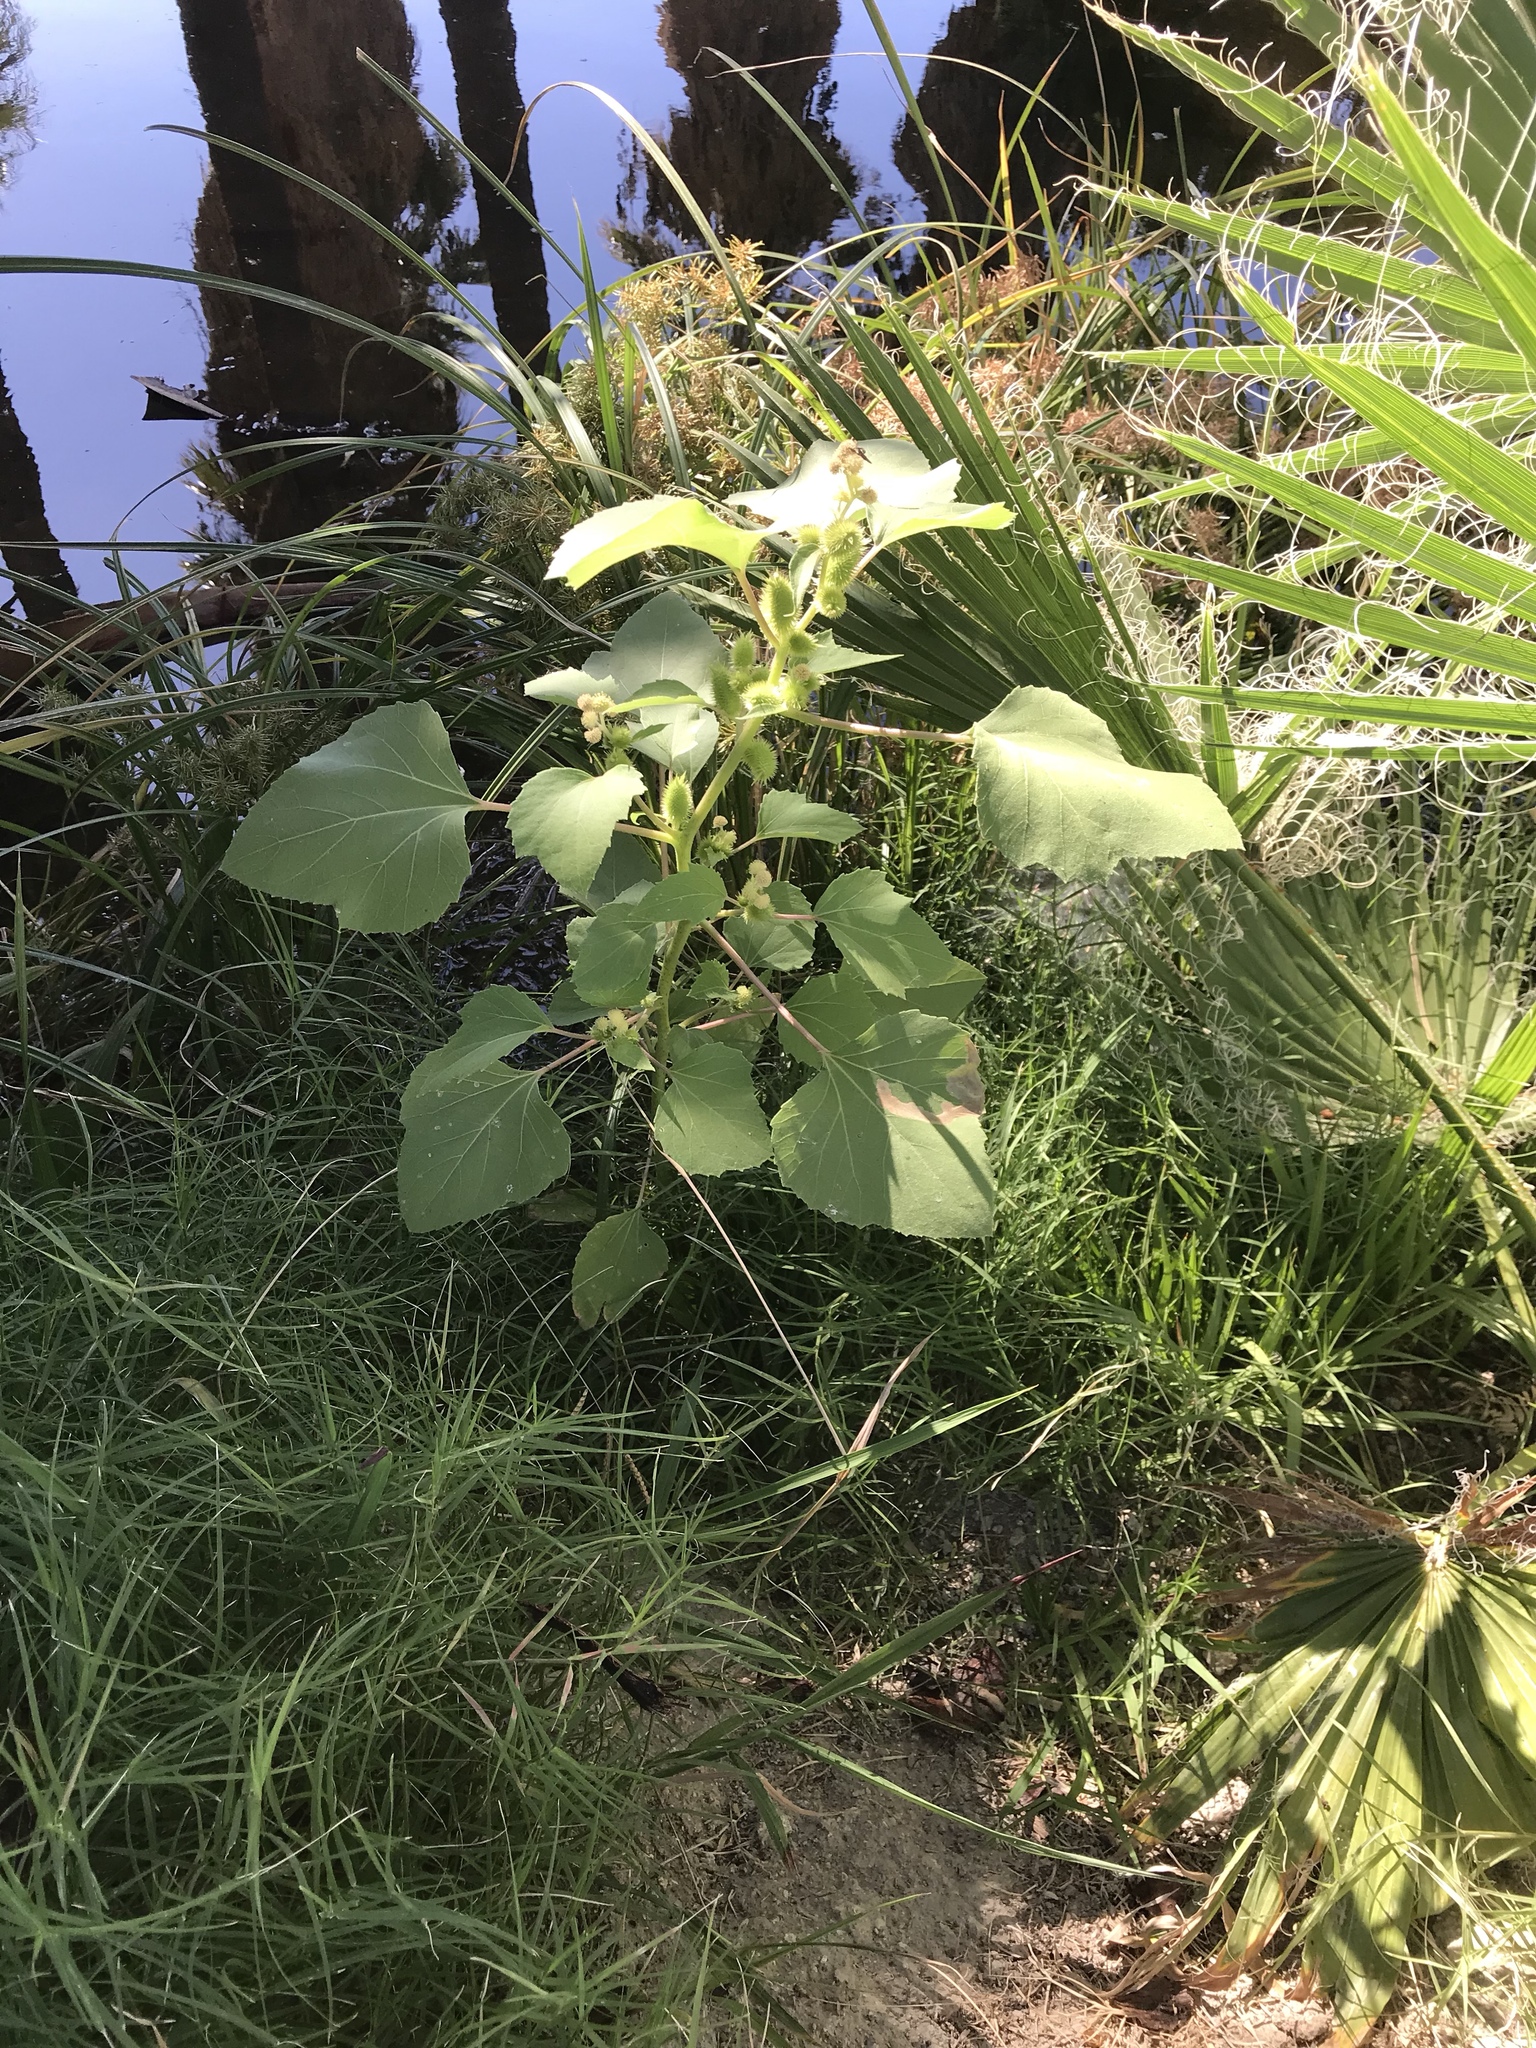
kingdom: Plantae
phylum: Tracheophyta
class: Magnoliopsida
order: Asterales
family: Asteraceae
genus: Xanthium
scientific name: Xanthium strumarium
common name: Rough cocklebur
